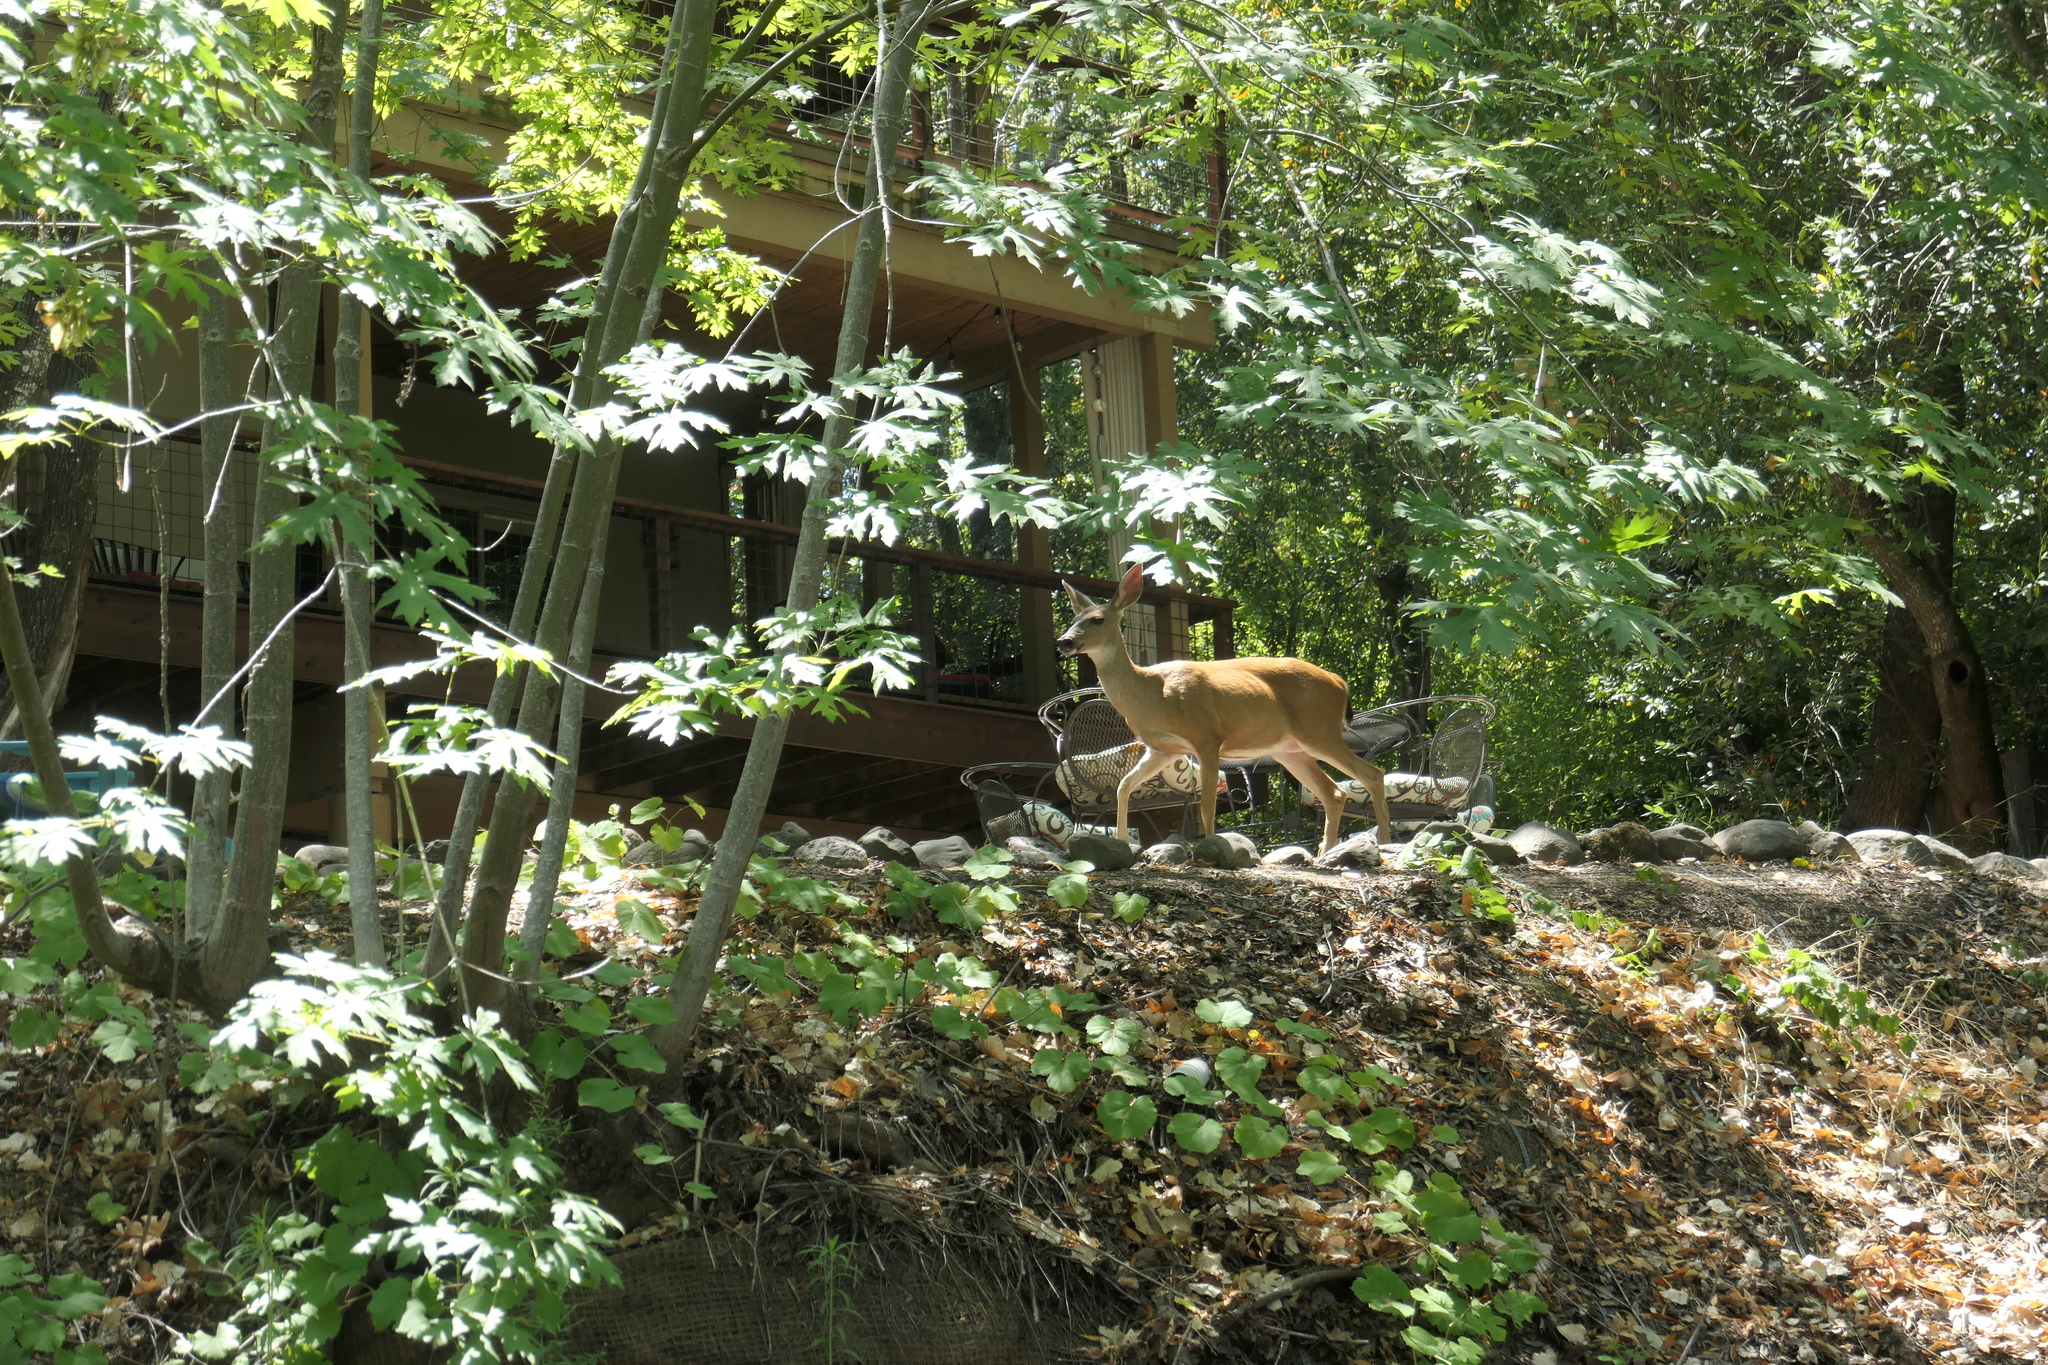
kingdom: Animalia
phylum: Chordata
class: Mammalia
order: Artiodactyla
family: Cervidae
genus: Odocoileus
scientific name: Odocoileus hemionus
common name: Mule deer
